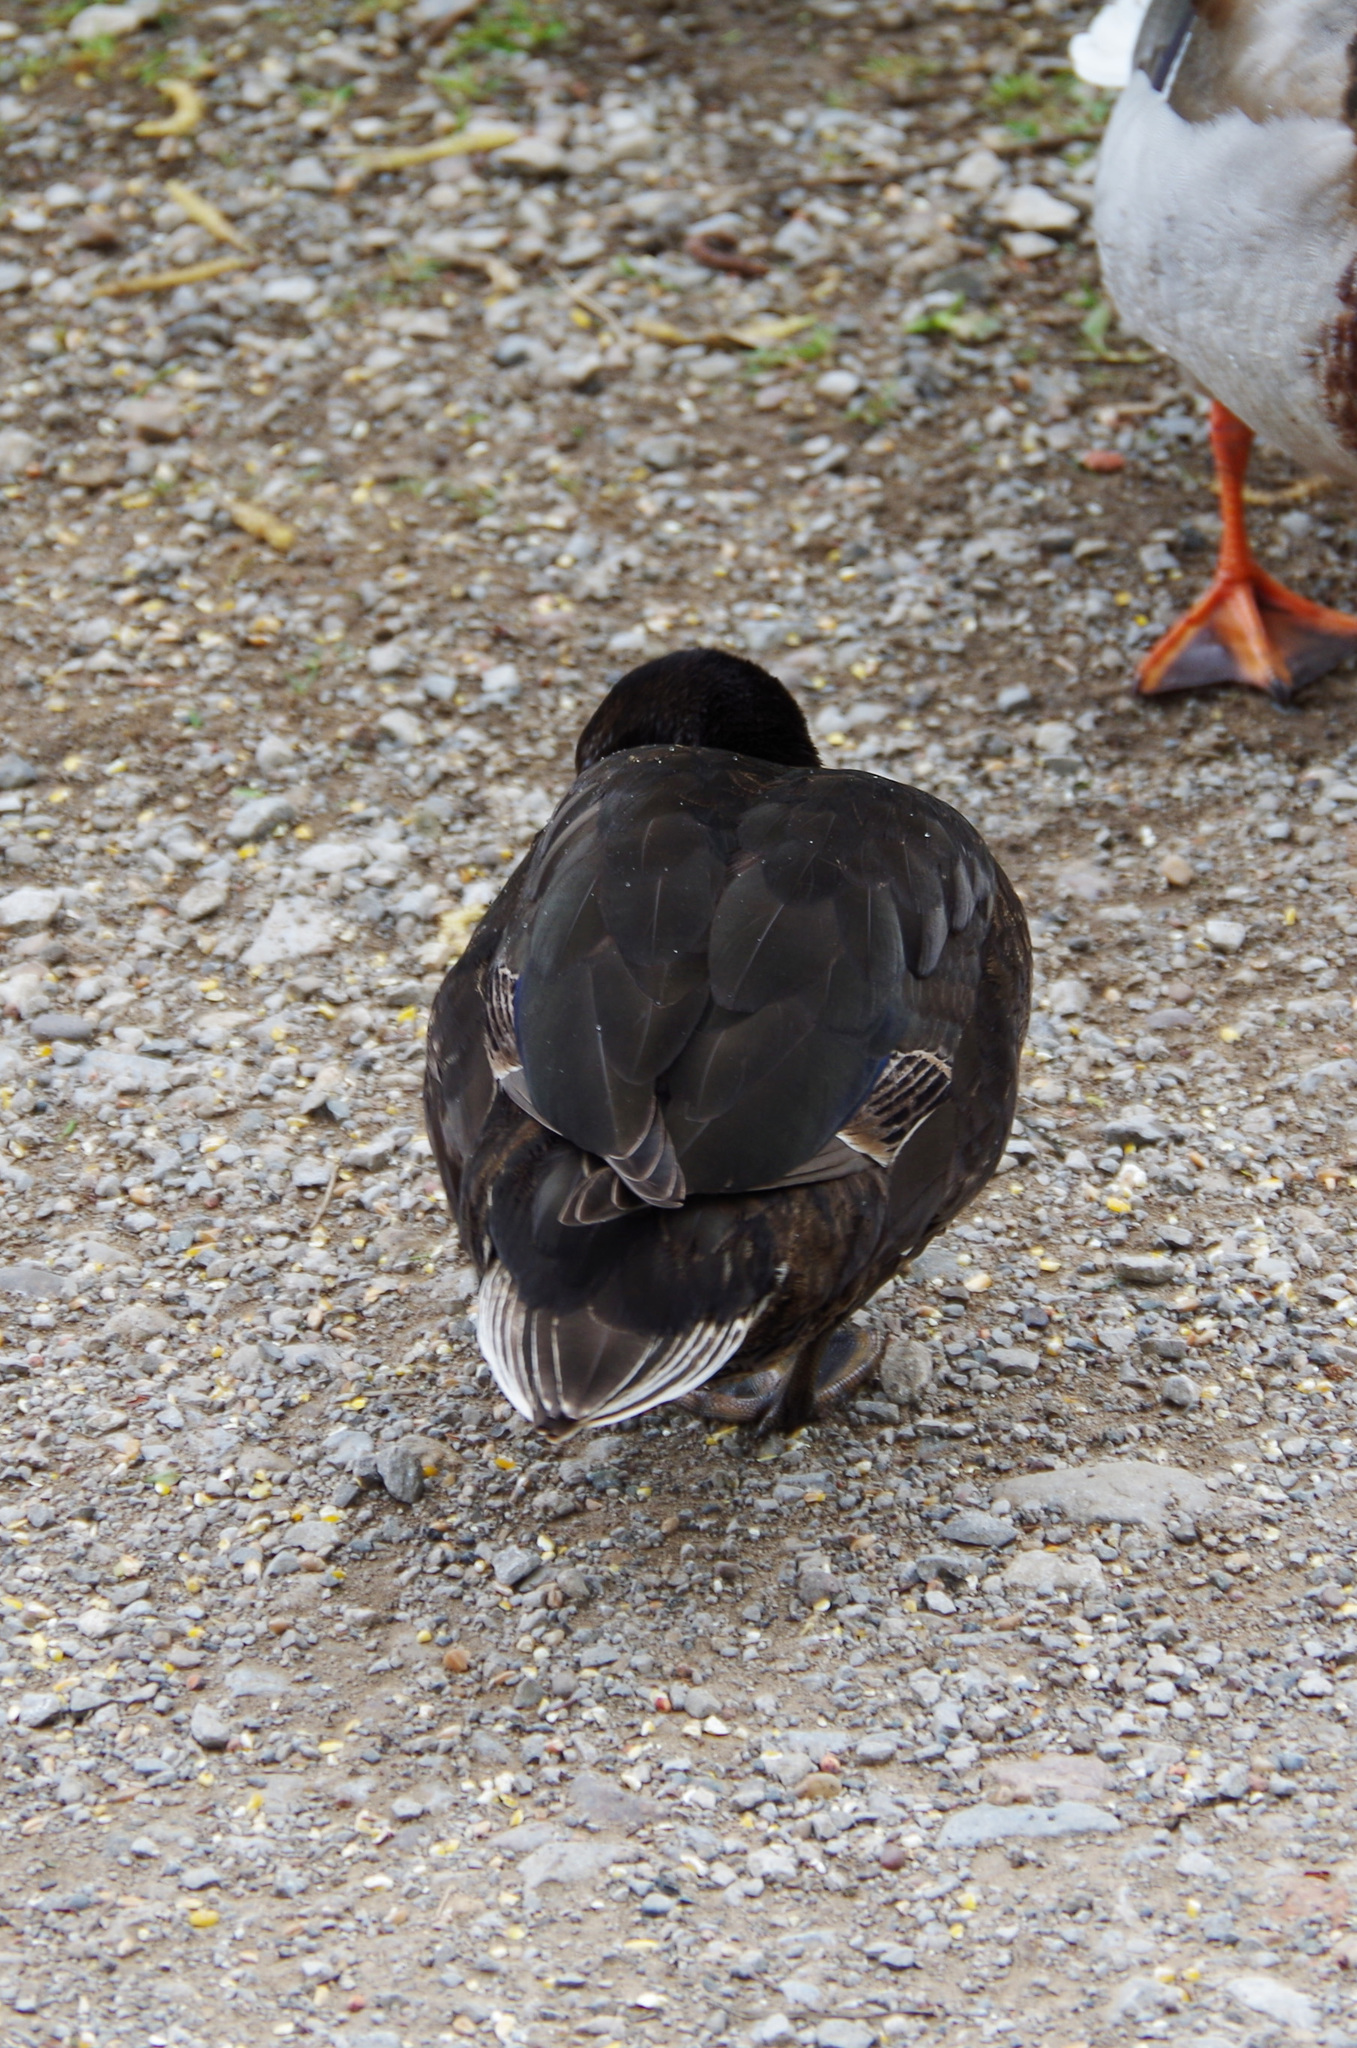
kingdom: Animalia
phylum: Chordata
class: Aves
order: Anseriformes
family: Anatidae
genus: Anas
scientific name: Anas platyrhynchos
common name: Mallard
